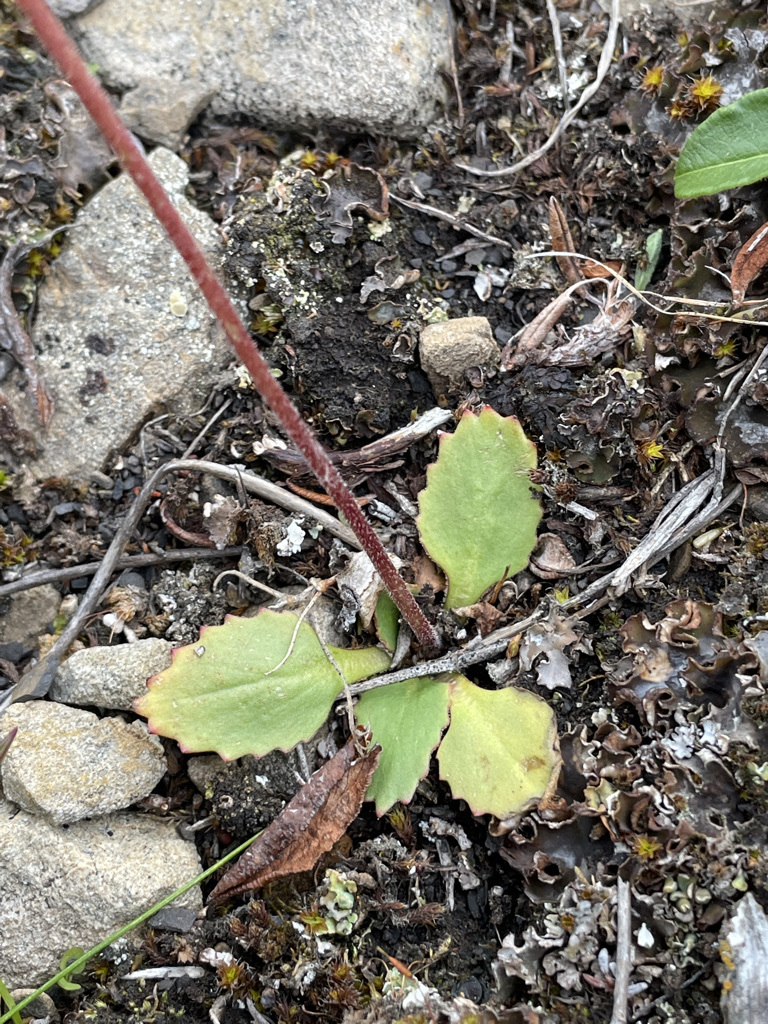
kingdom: Plantae
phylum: Tracheophyta
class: Magnoliopsida
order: Saxifragales
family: Saxifragaceae
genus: Micranthes
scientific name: Micranthes occidentalis
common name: Alberta saxifrage
